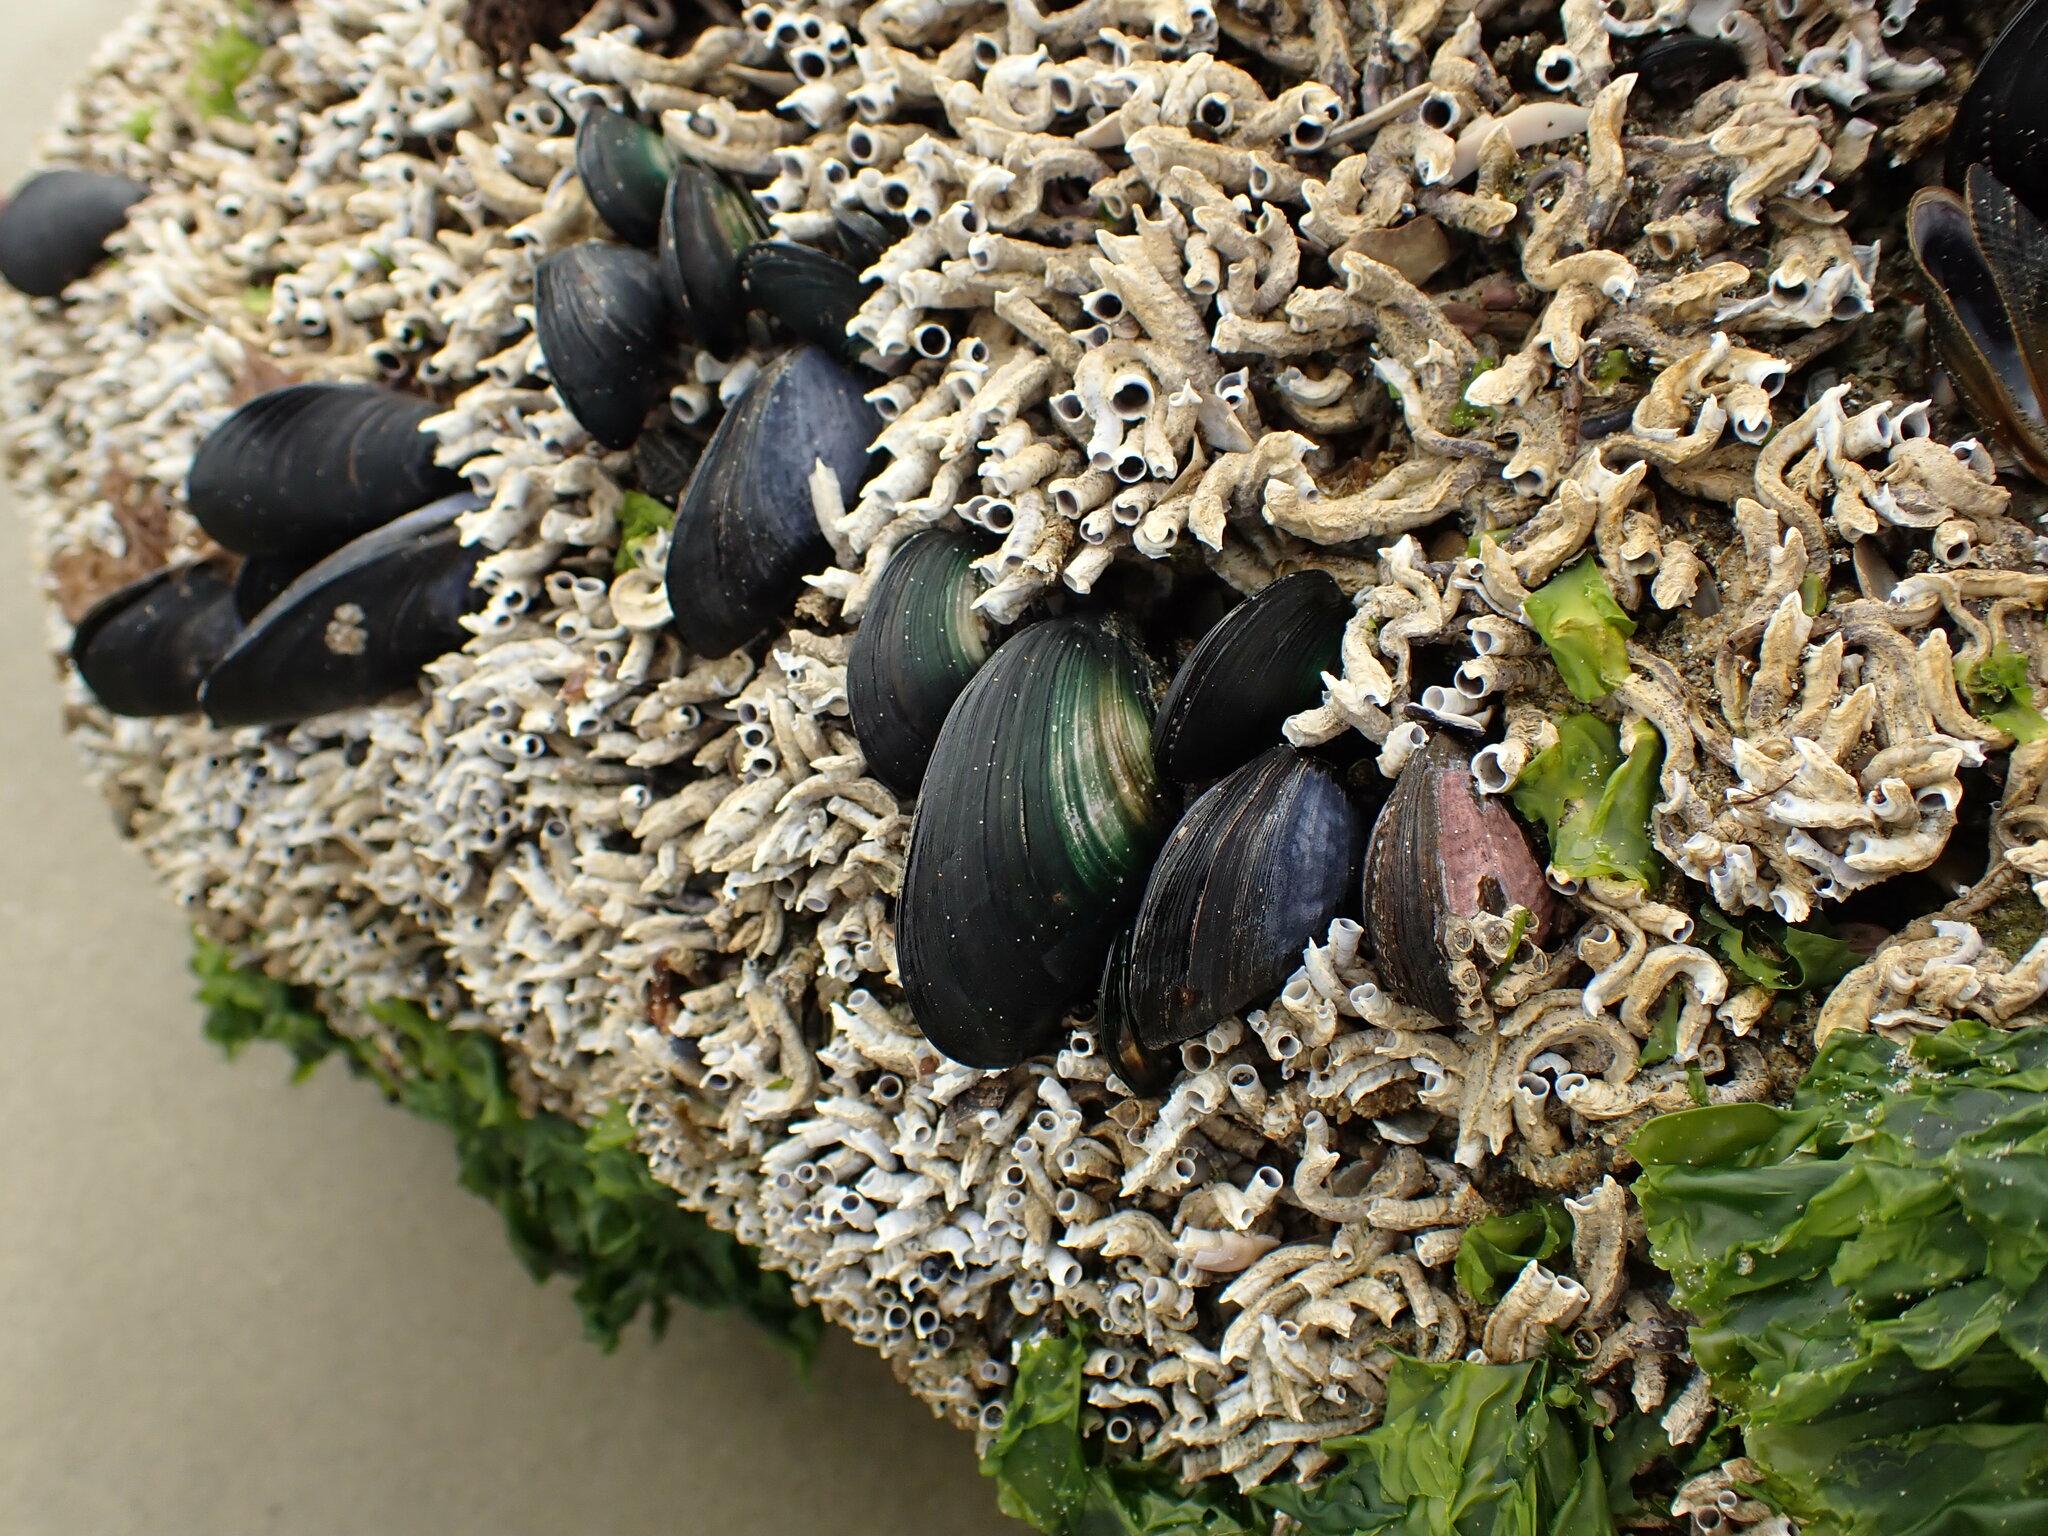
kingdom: Animalia
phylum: Mollusca
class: Bivalvia
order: Mytilida
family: Mytilidae
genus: Perna
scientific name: Perna canaliculus
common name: New zealand greenshelltm
